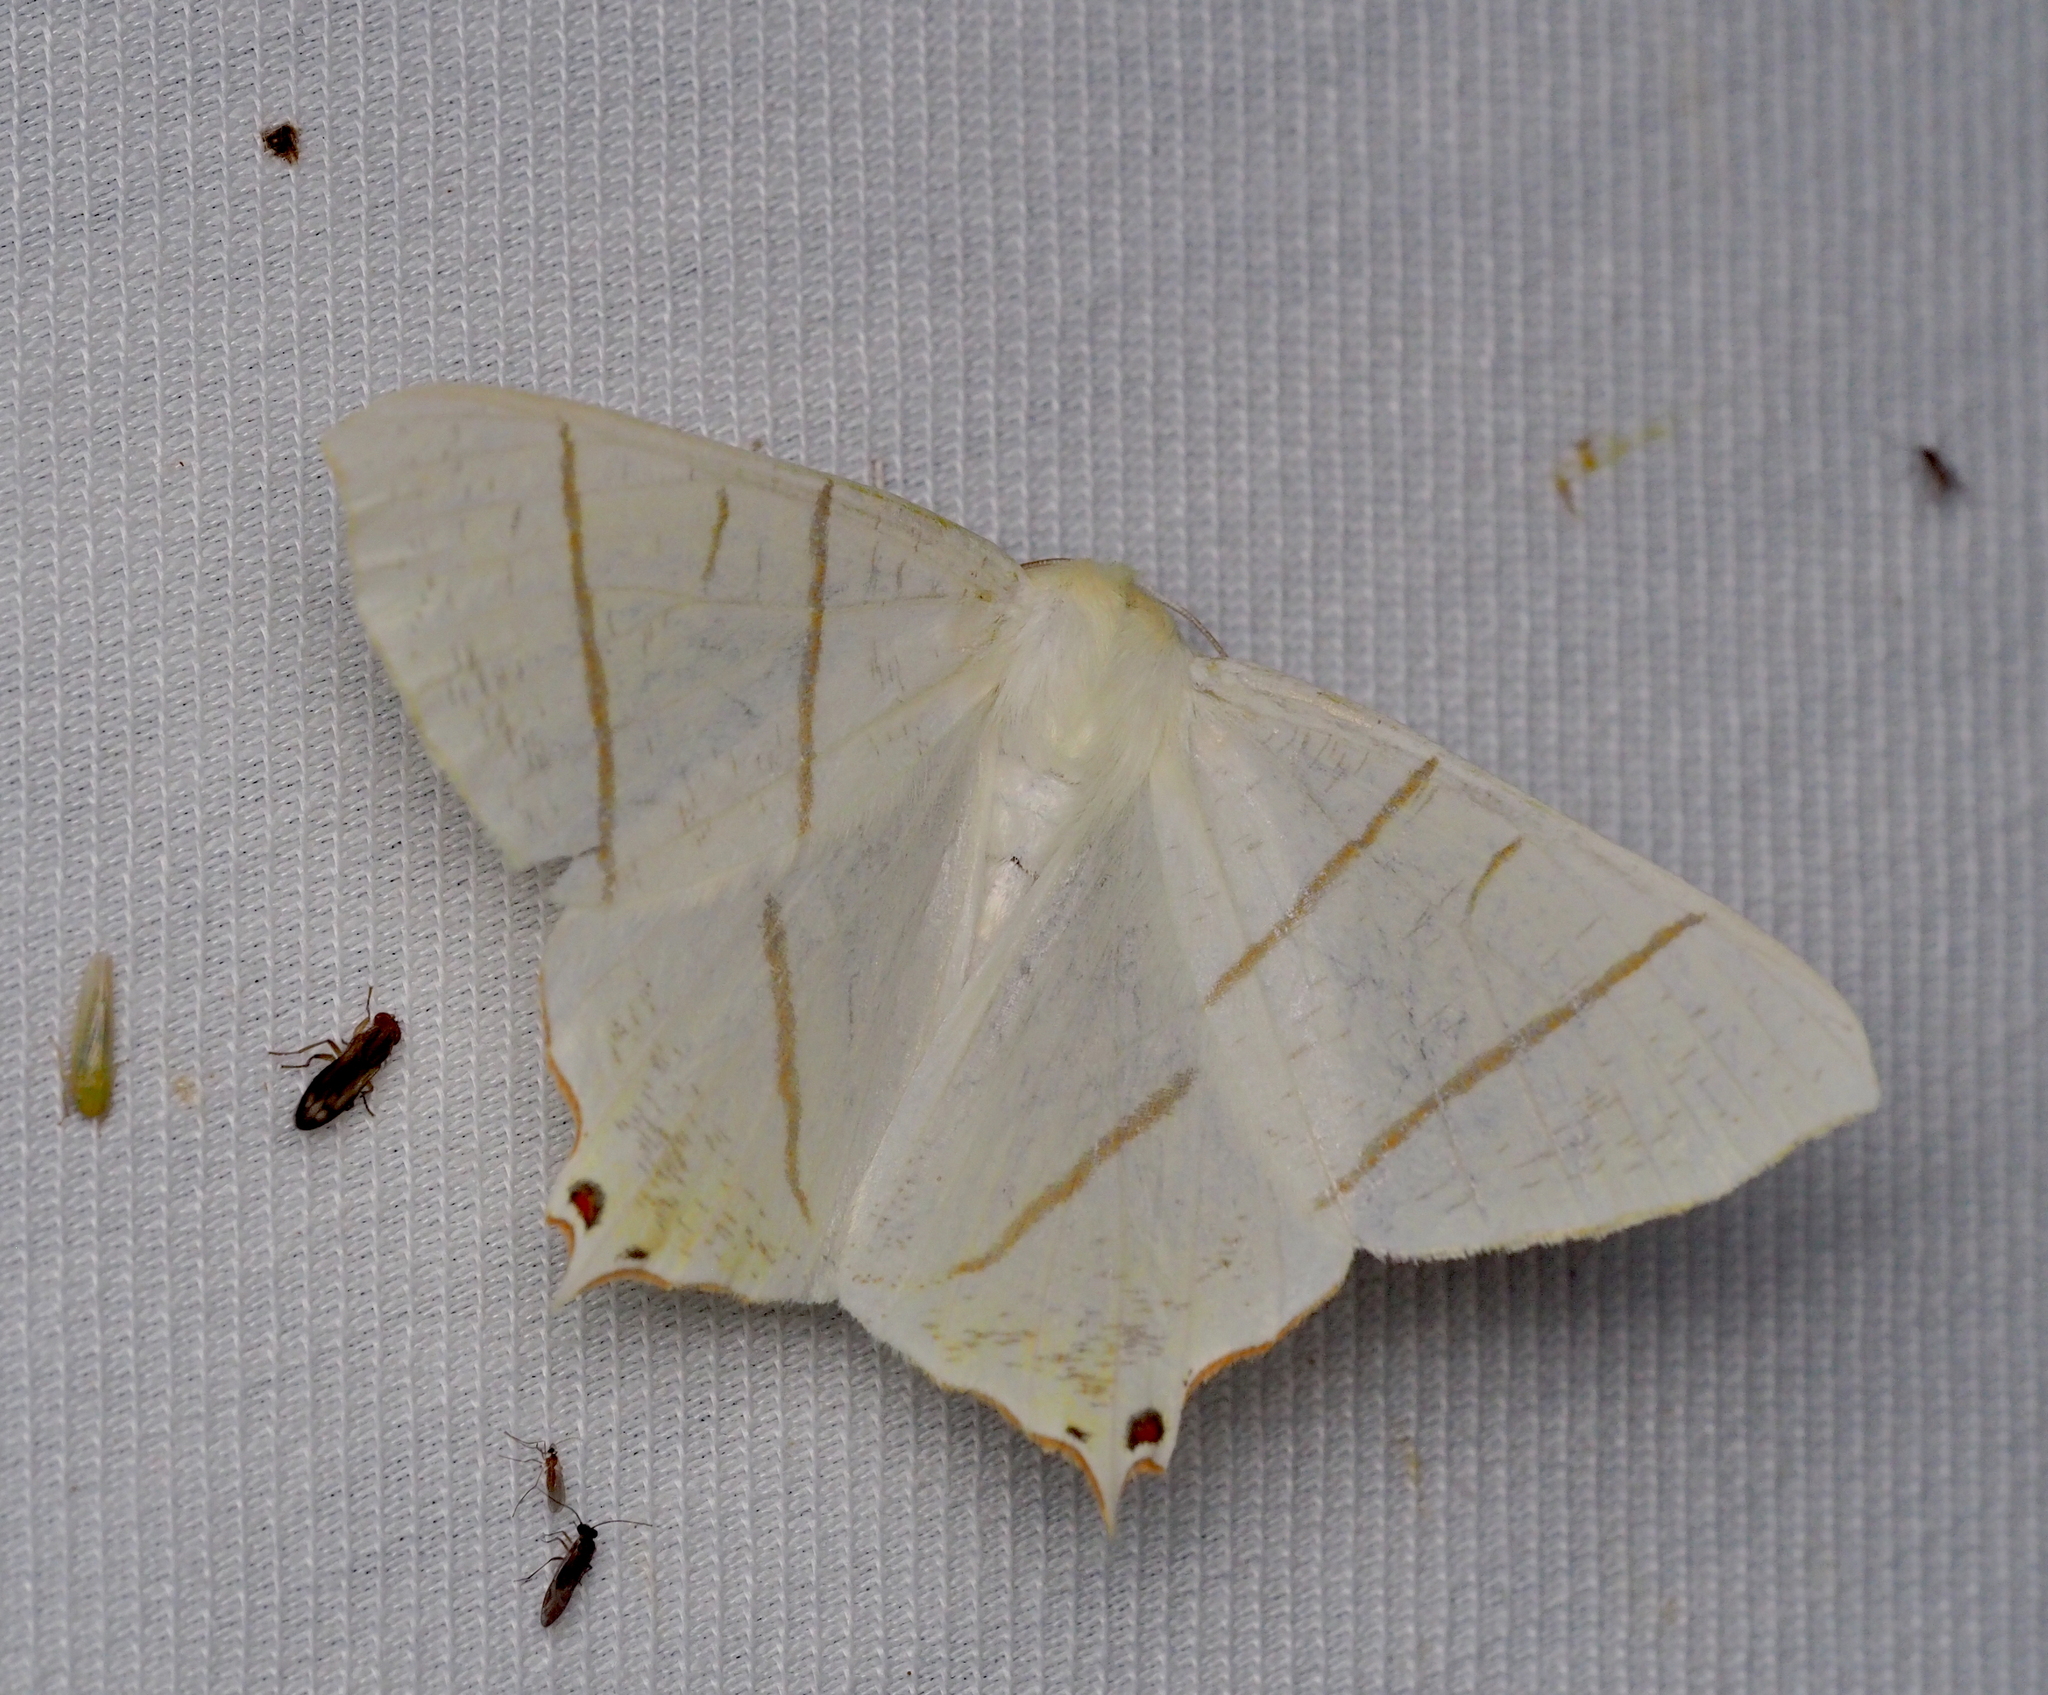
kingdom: Animalia
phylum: Arthropoda
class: Insecta
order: Lepidoptera
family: Geometridae
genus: Ourapteryx
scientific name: Ourapteryx sambucaria
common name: Swallow-tailed moth
